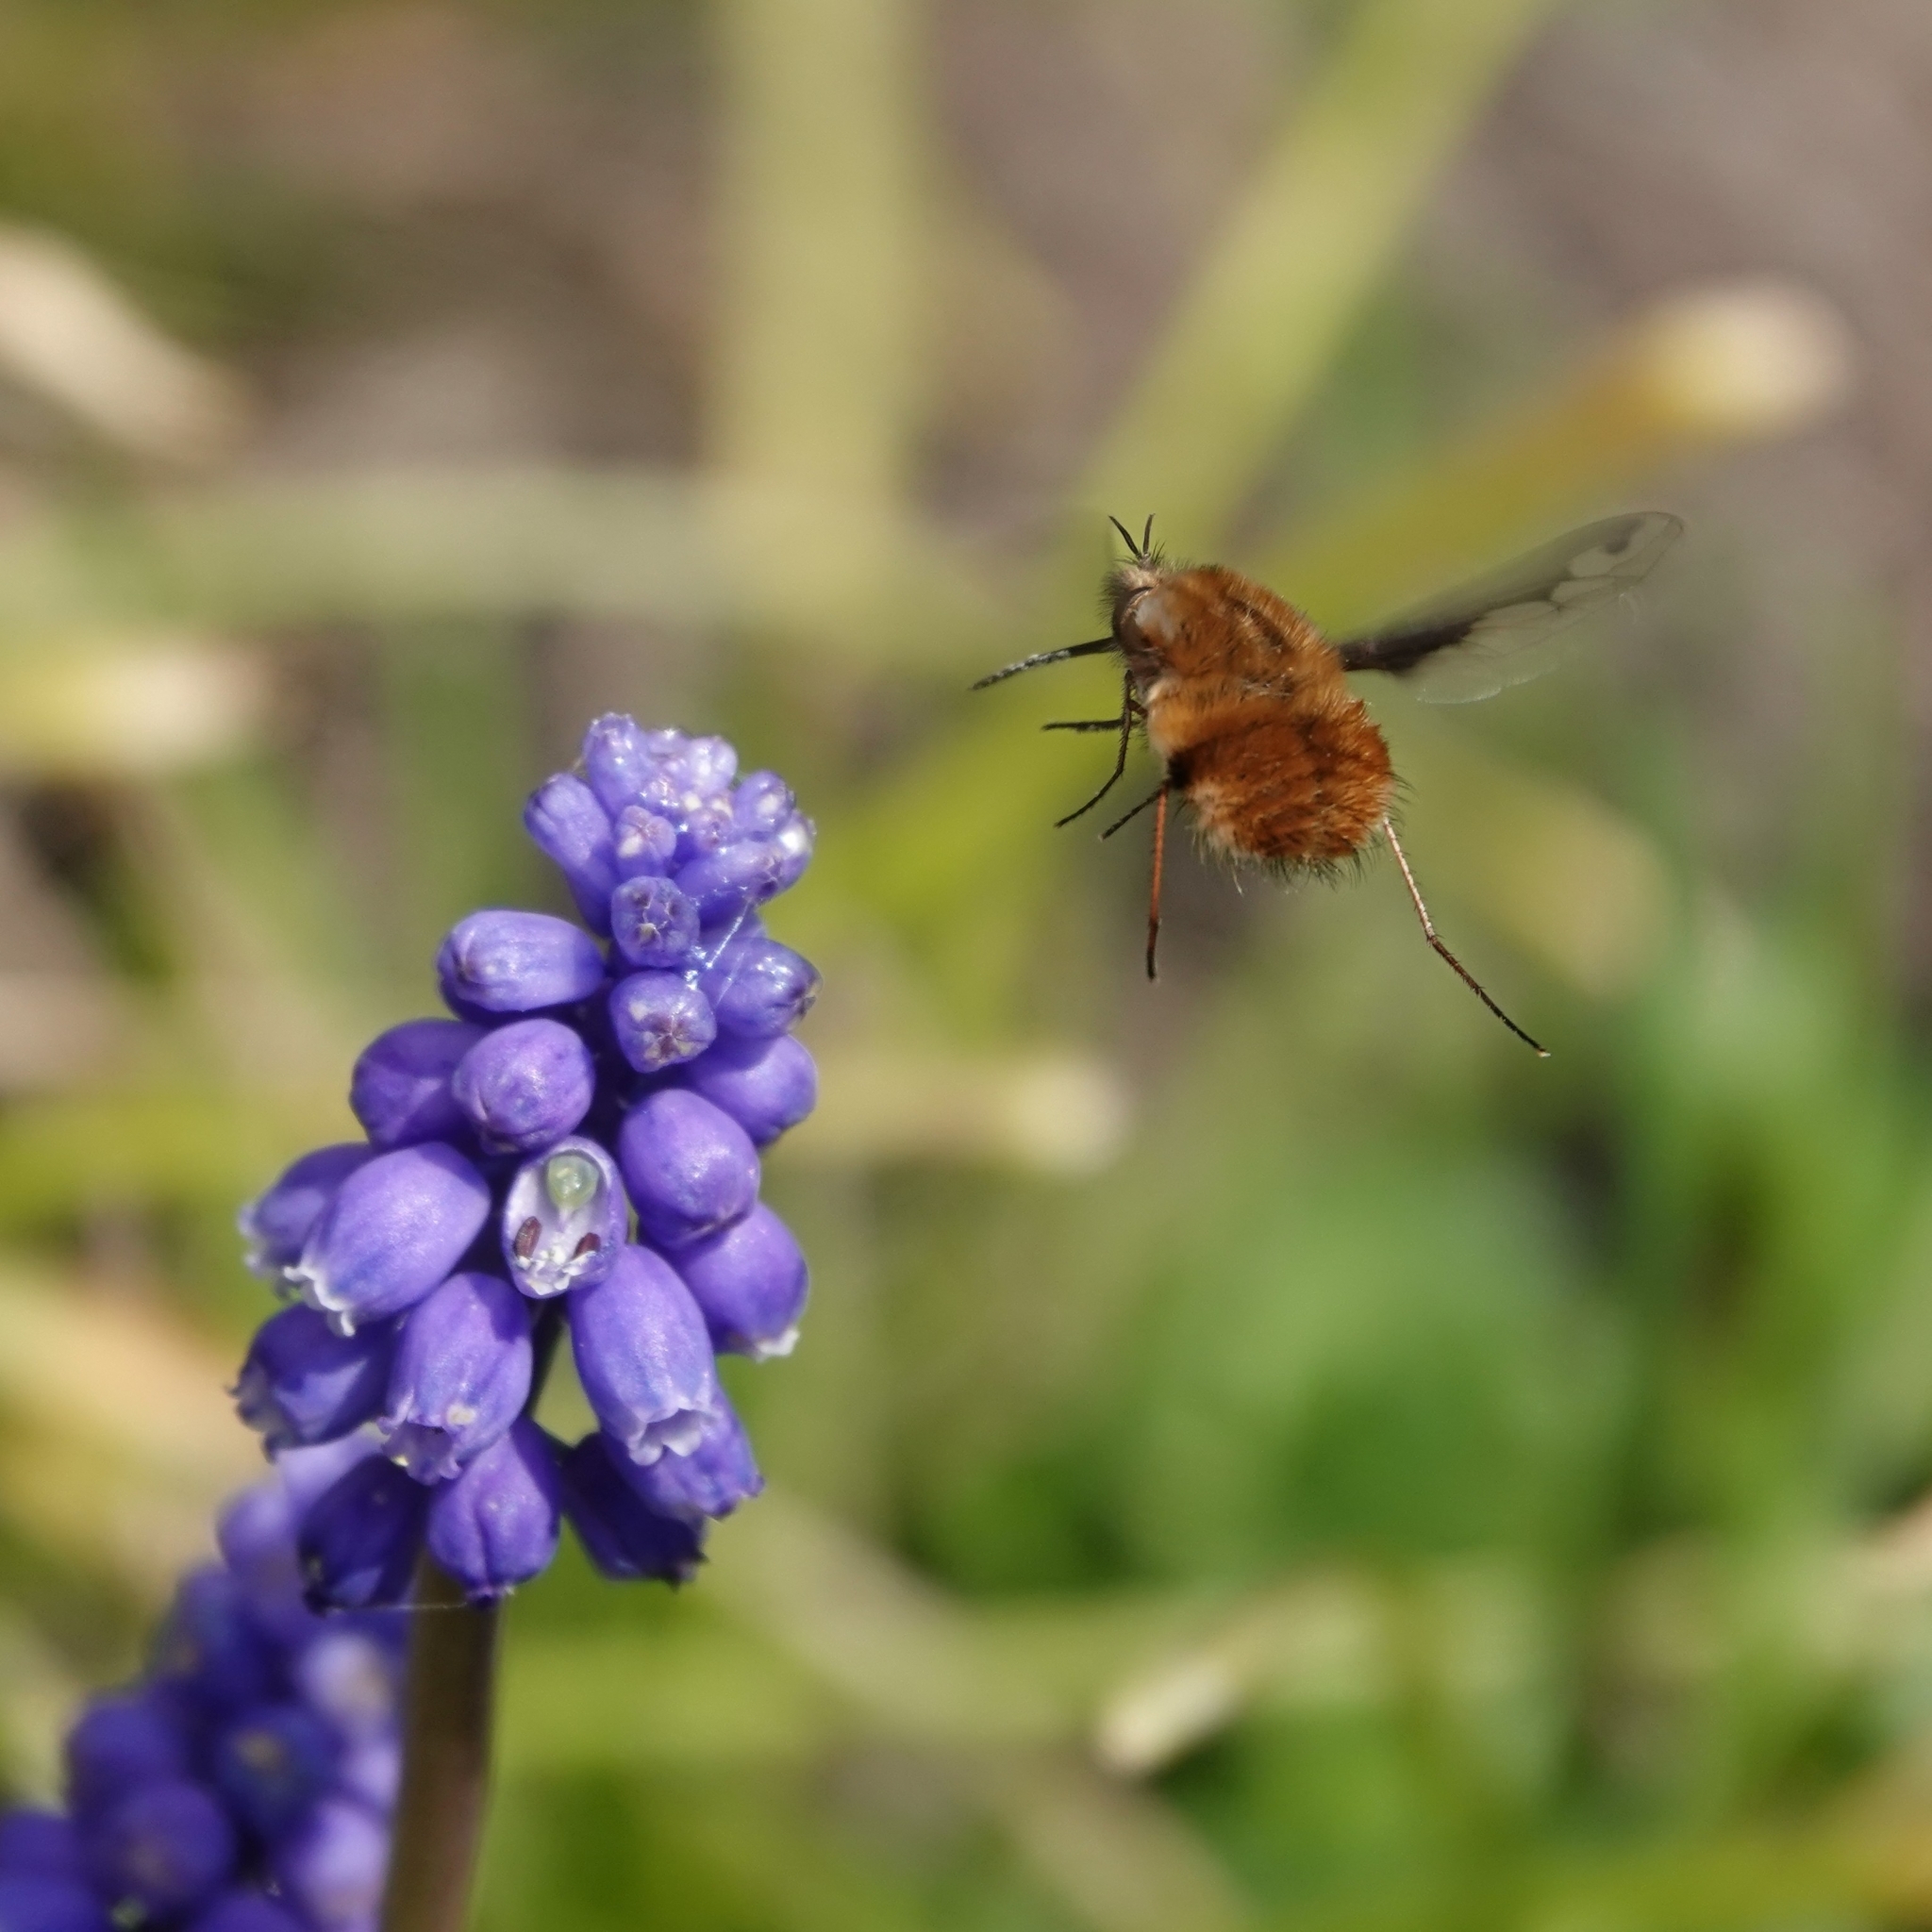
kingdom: Animalia
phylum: Arthropoda
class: Insecta
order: Diptera
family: Bombyliidae
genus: Bombylius
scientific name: Bombylius major
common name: Bee fly
